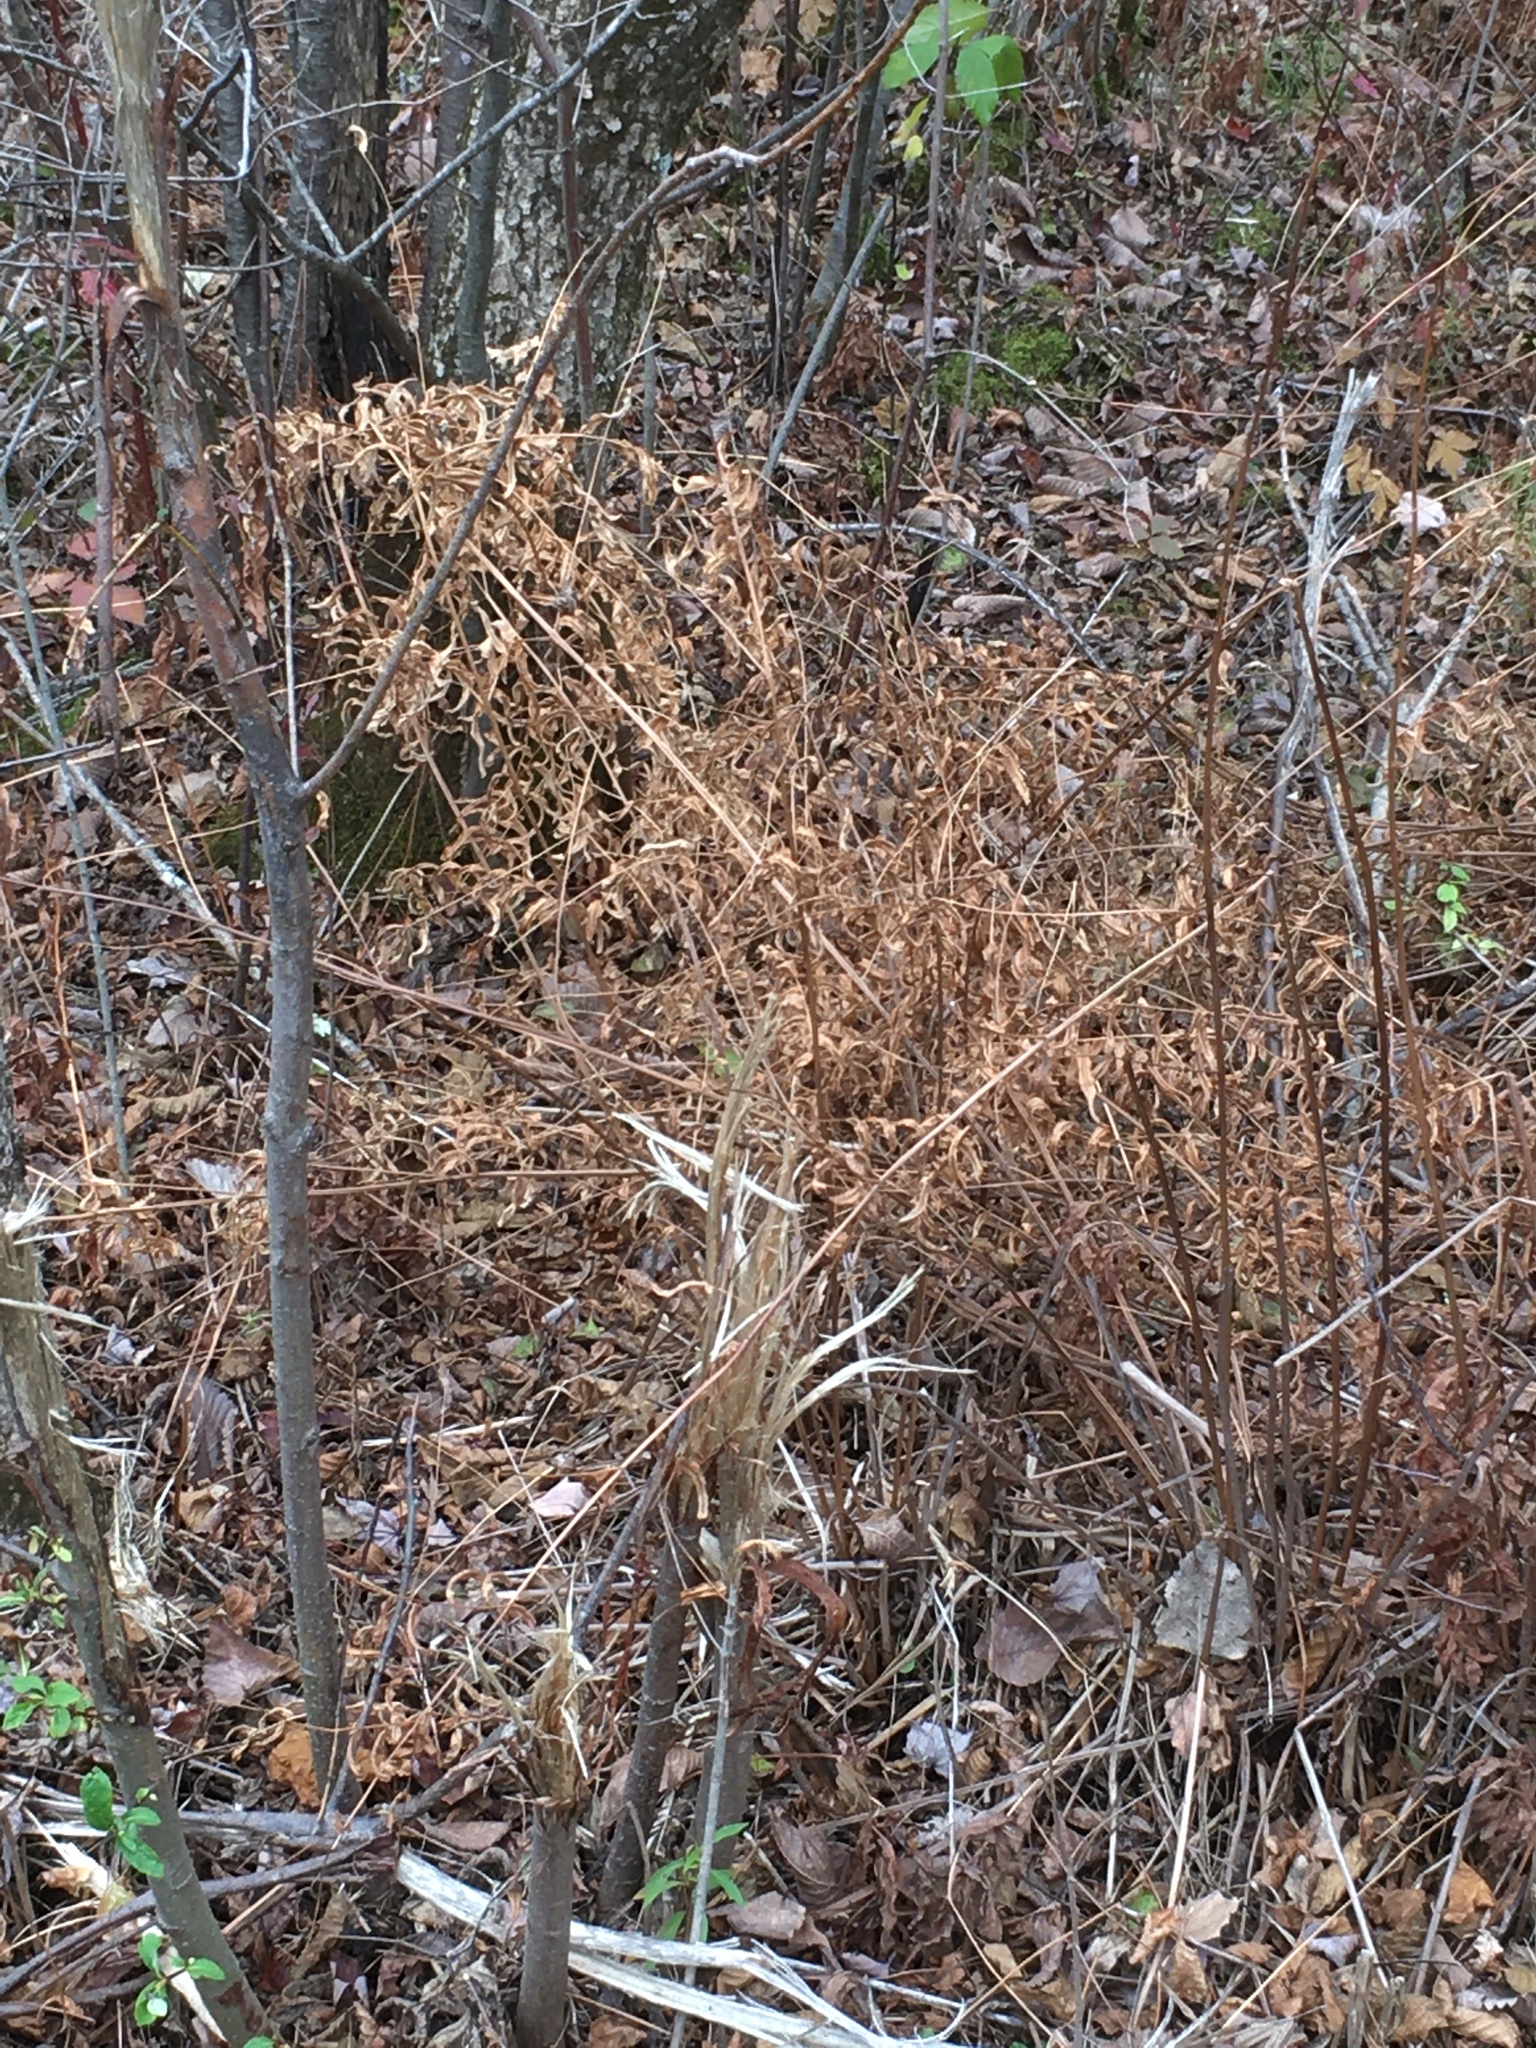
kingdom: Plantae
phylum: Tracheophyta
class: Polypodiopsida
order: Osmundales
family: Osmundaceae
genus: Osmunda
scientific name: Osmunda spectabilis
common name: American royal fern
